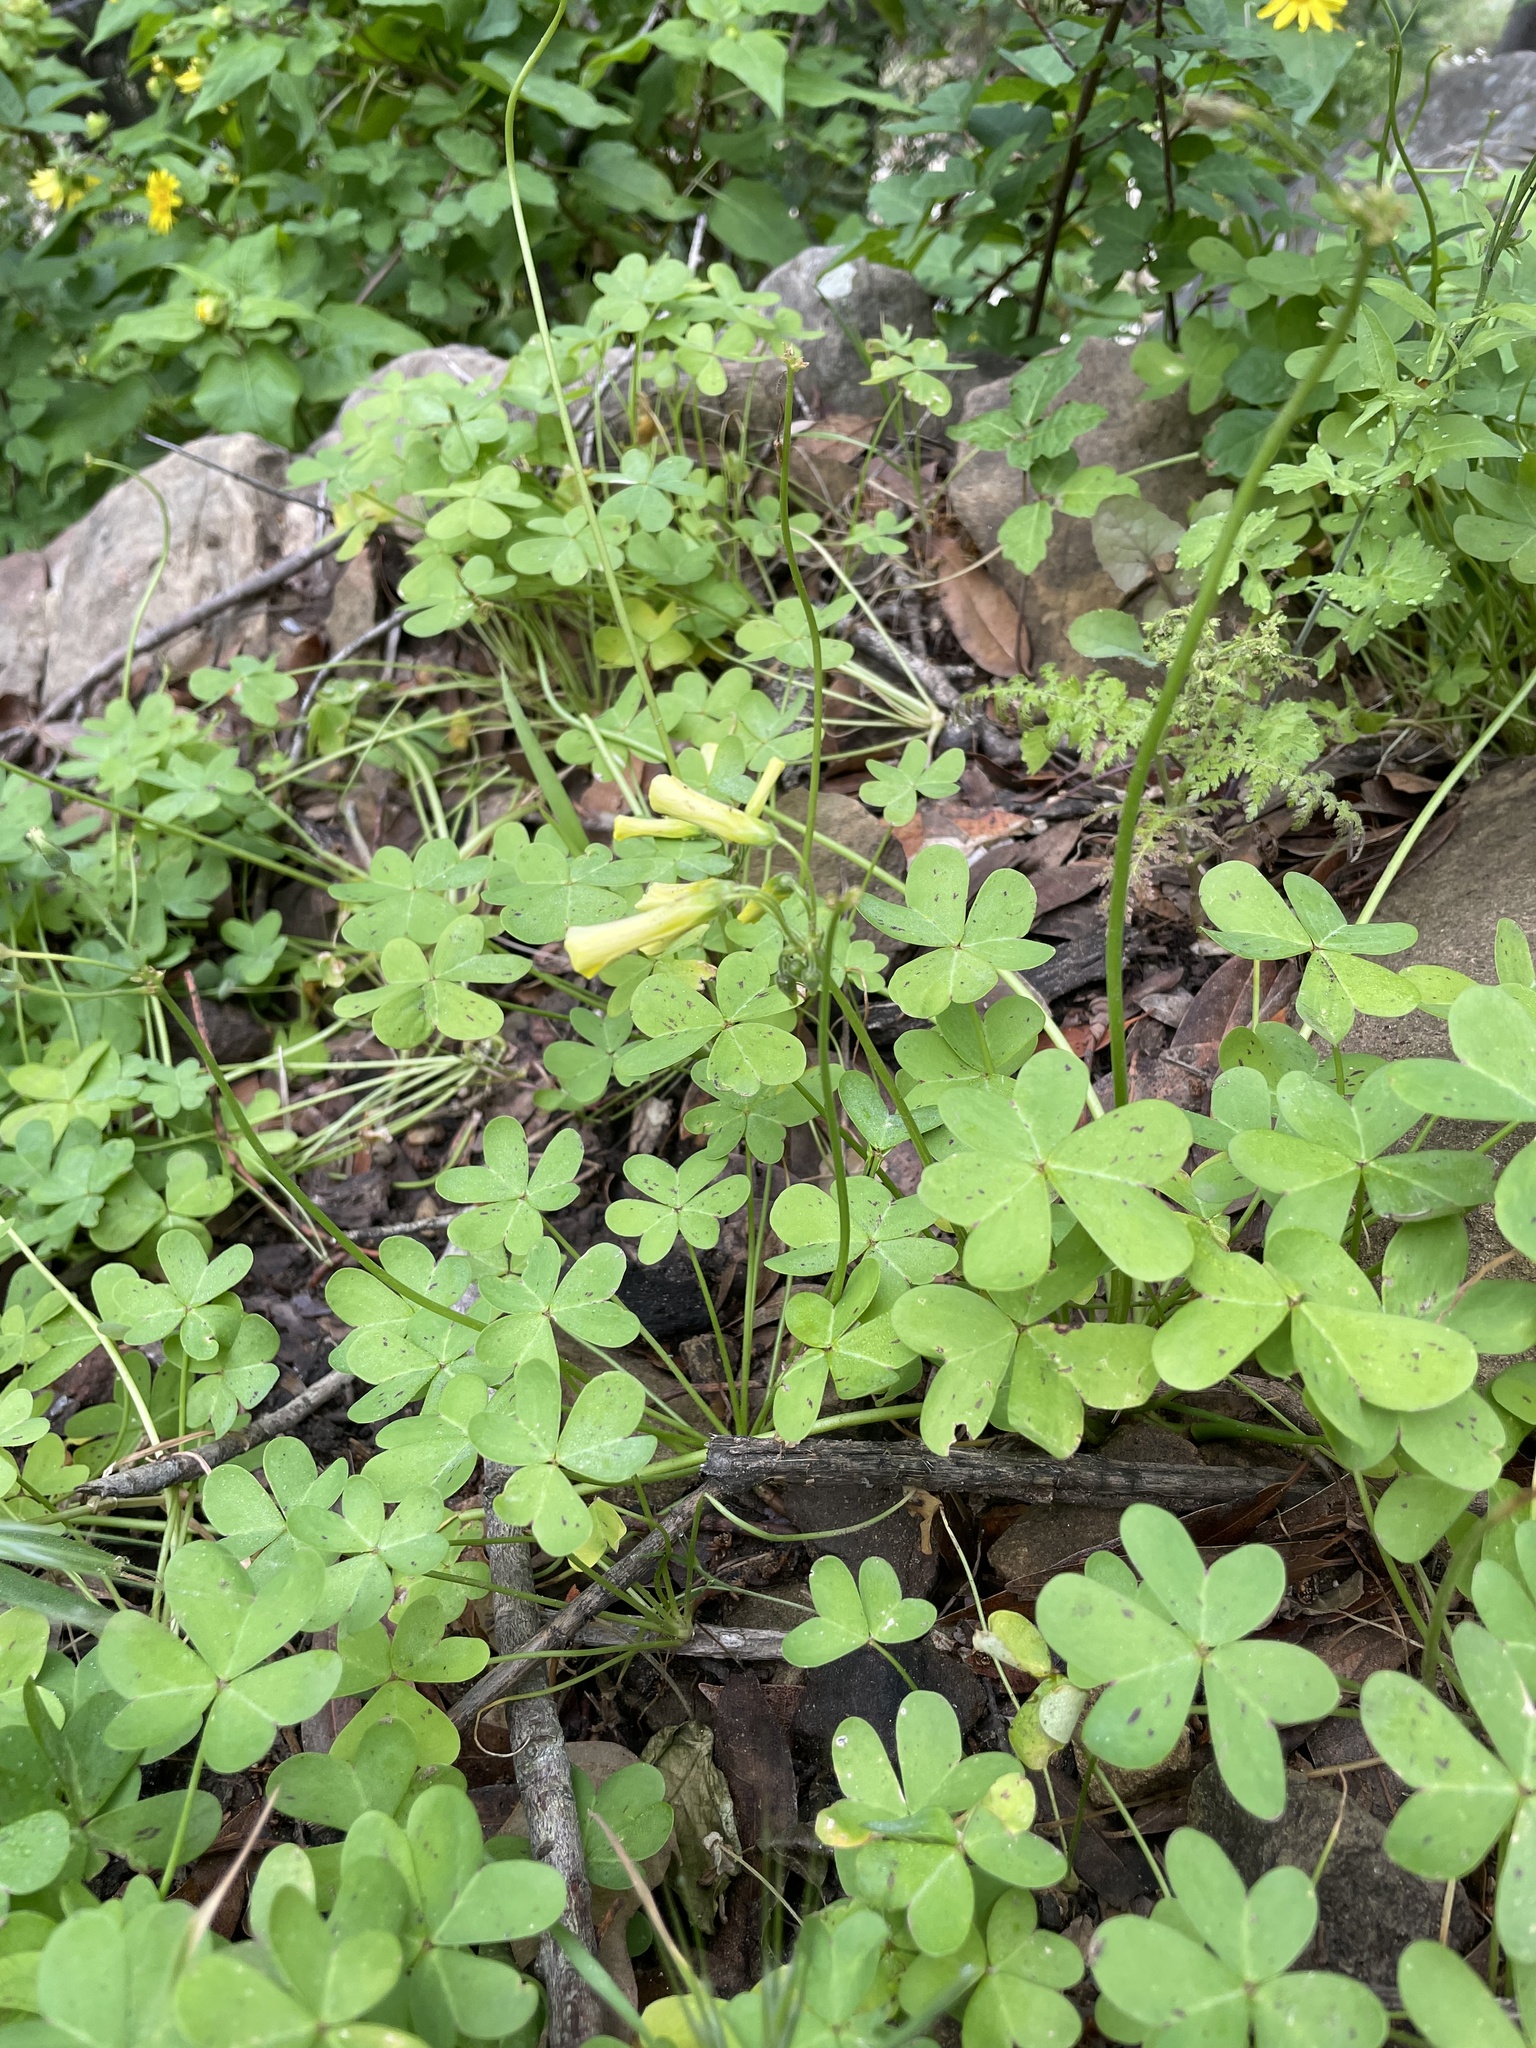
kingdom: Plantae
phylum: Tracheophyta
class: Magnoliopsida
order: Oxalidales
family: Oxalidaceae
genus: Oxalis
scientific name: Oxalis pes-caprae
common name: Bermuda-buttercup
